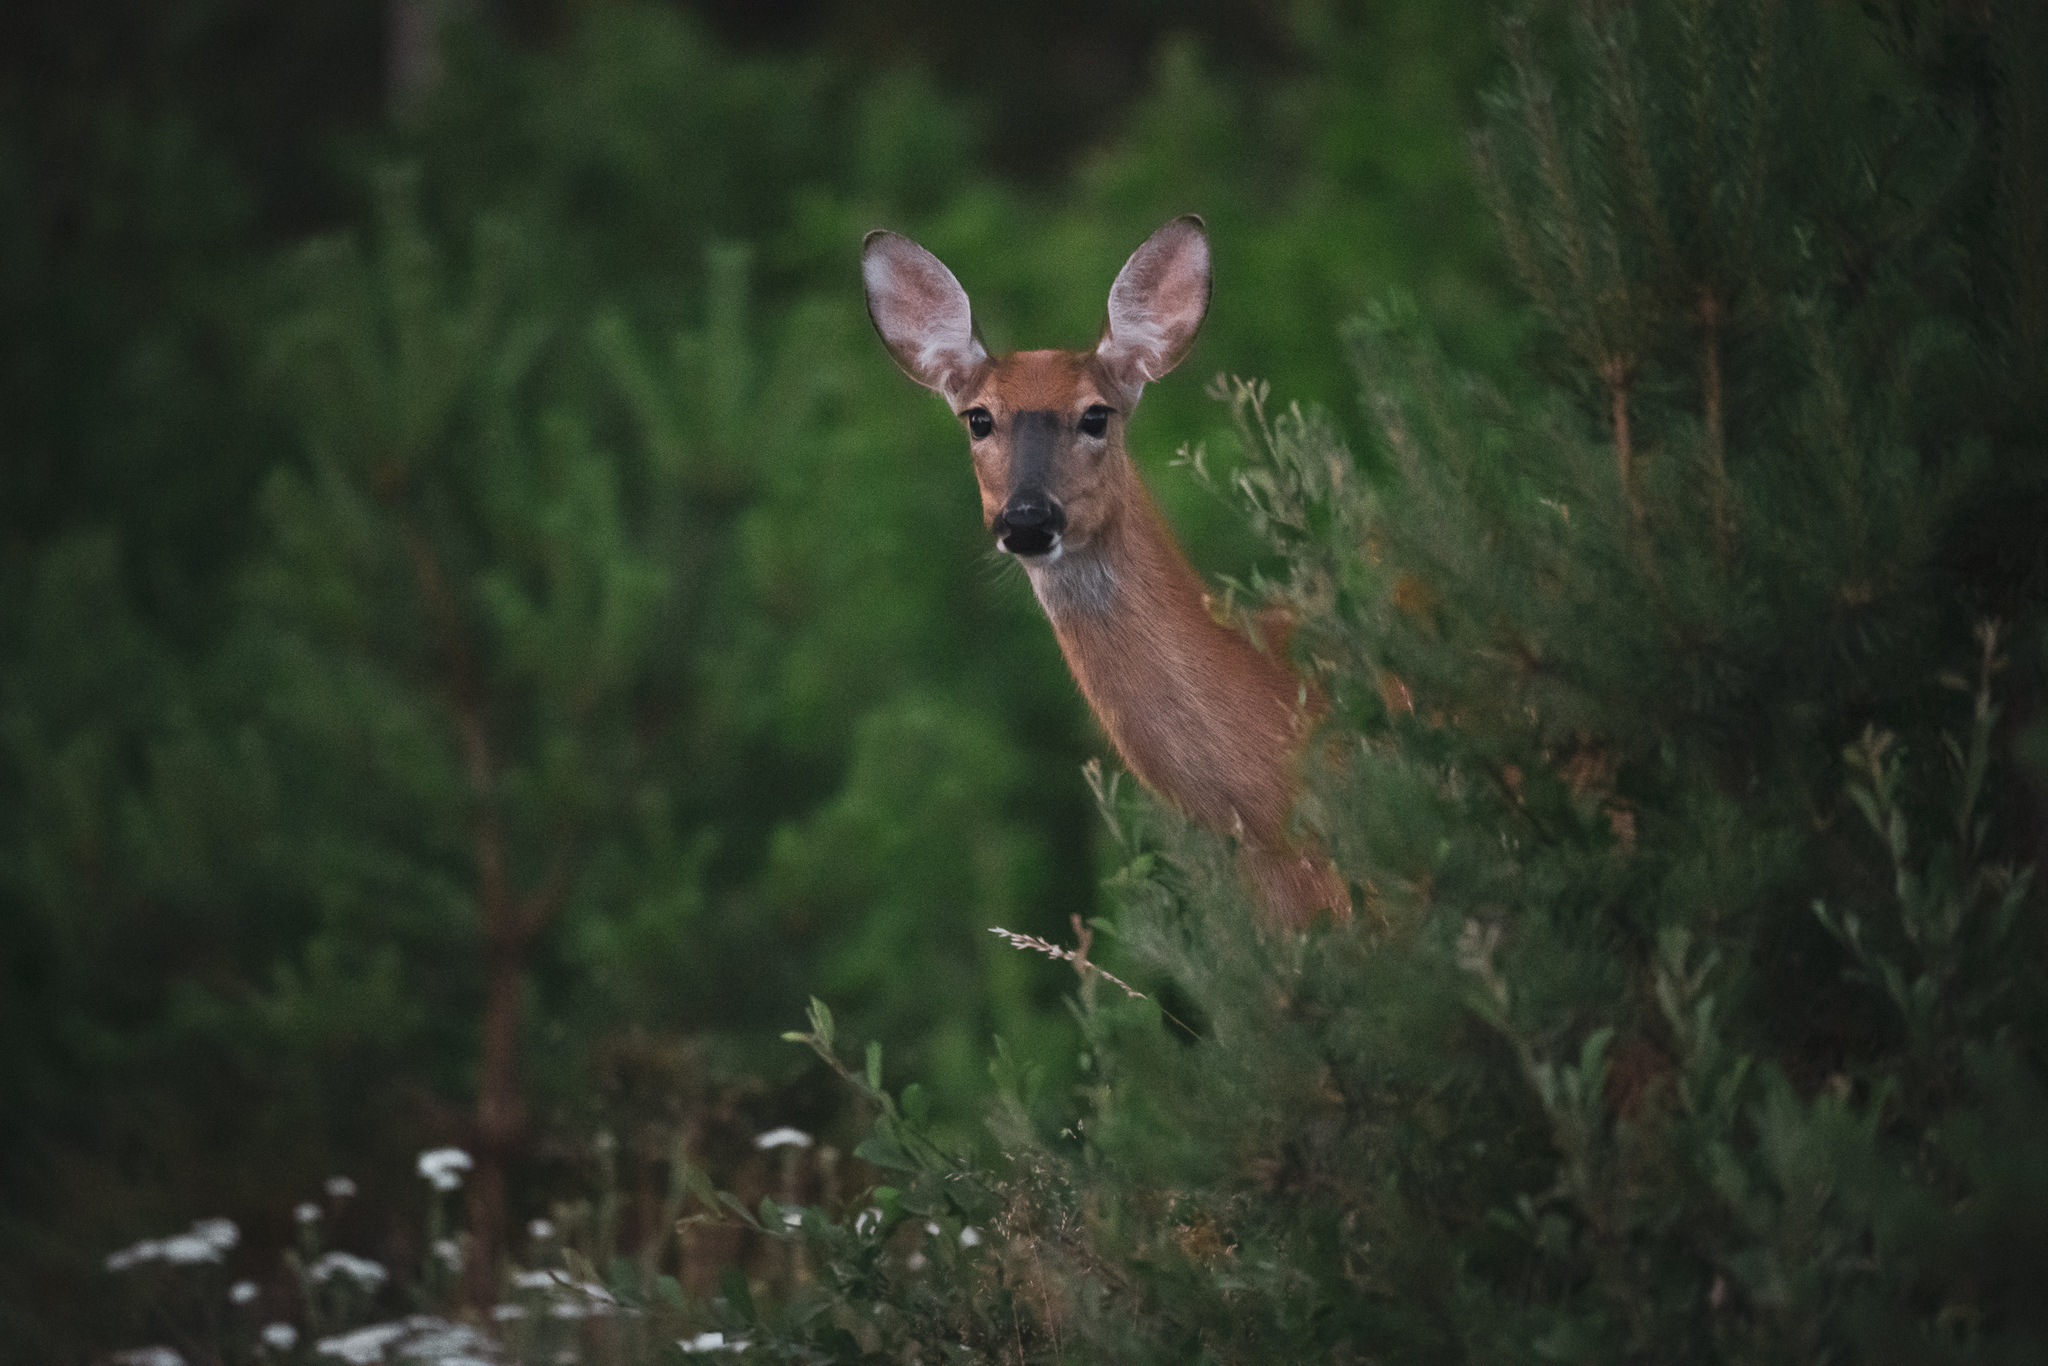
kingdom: Animalia
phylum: Chordata
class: Mammalia
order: Artiodactyla
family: Cervidae
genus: Odocoileus
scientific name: Odocoileus virginianus
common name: White-tailed deer
